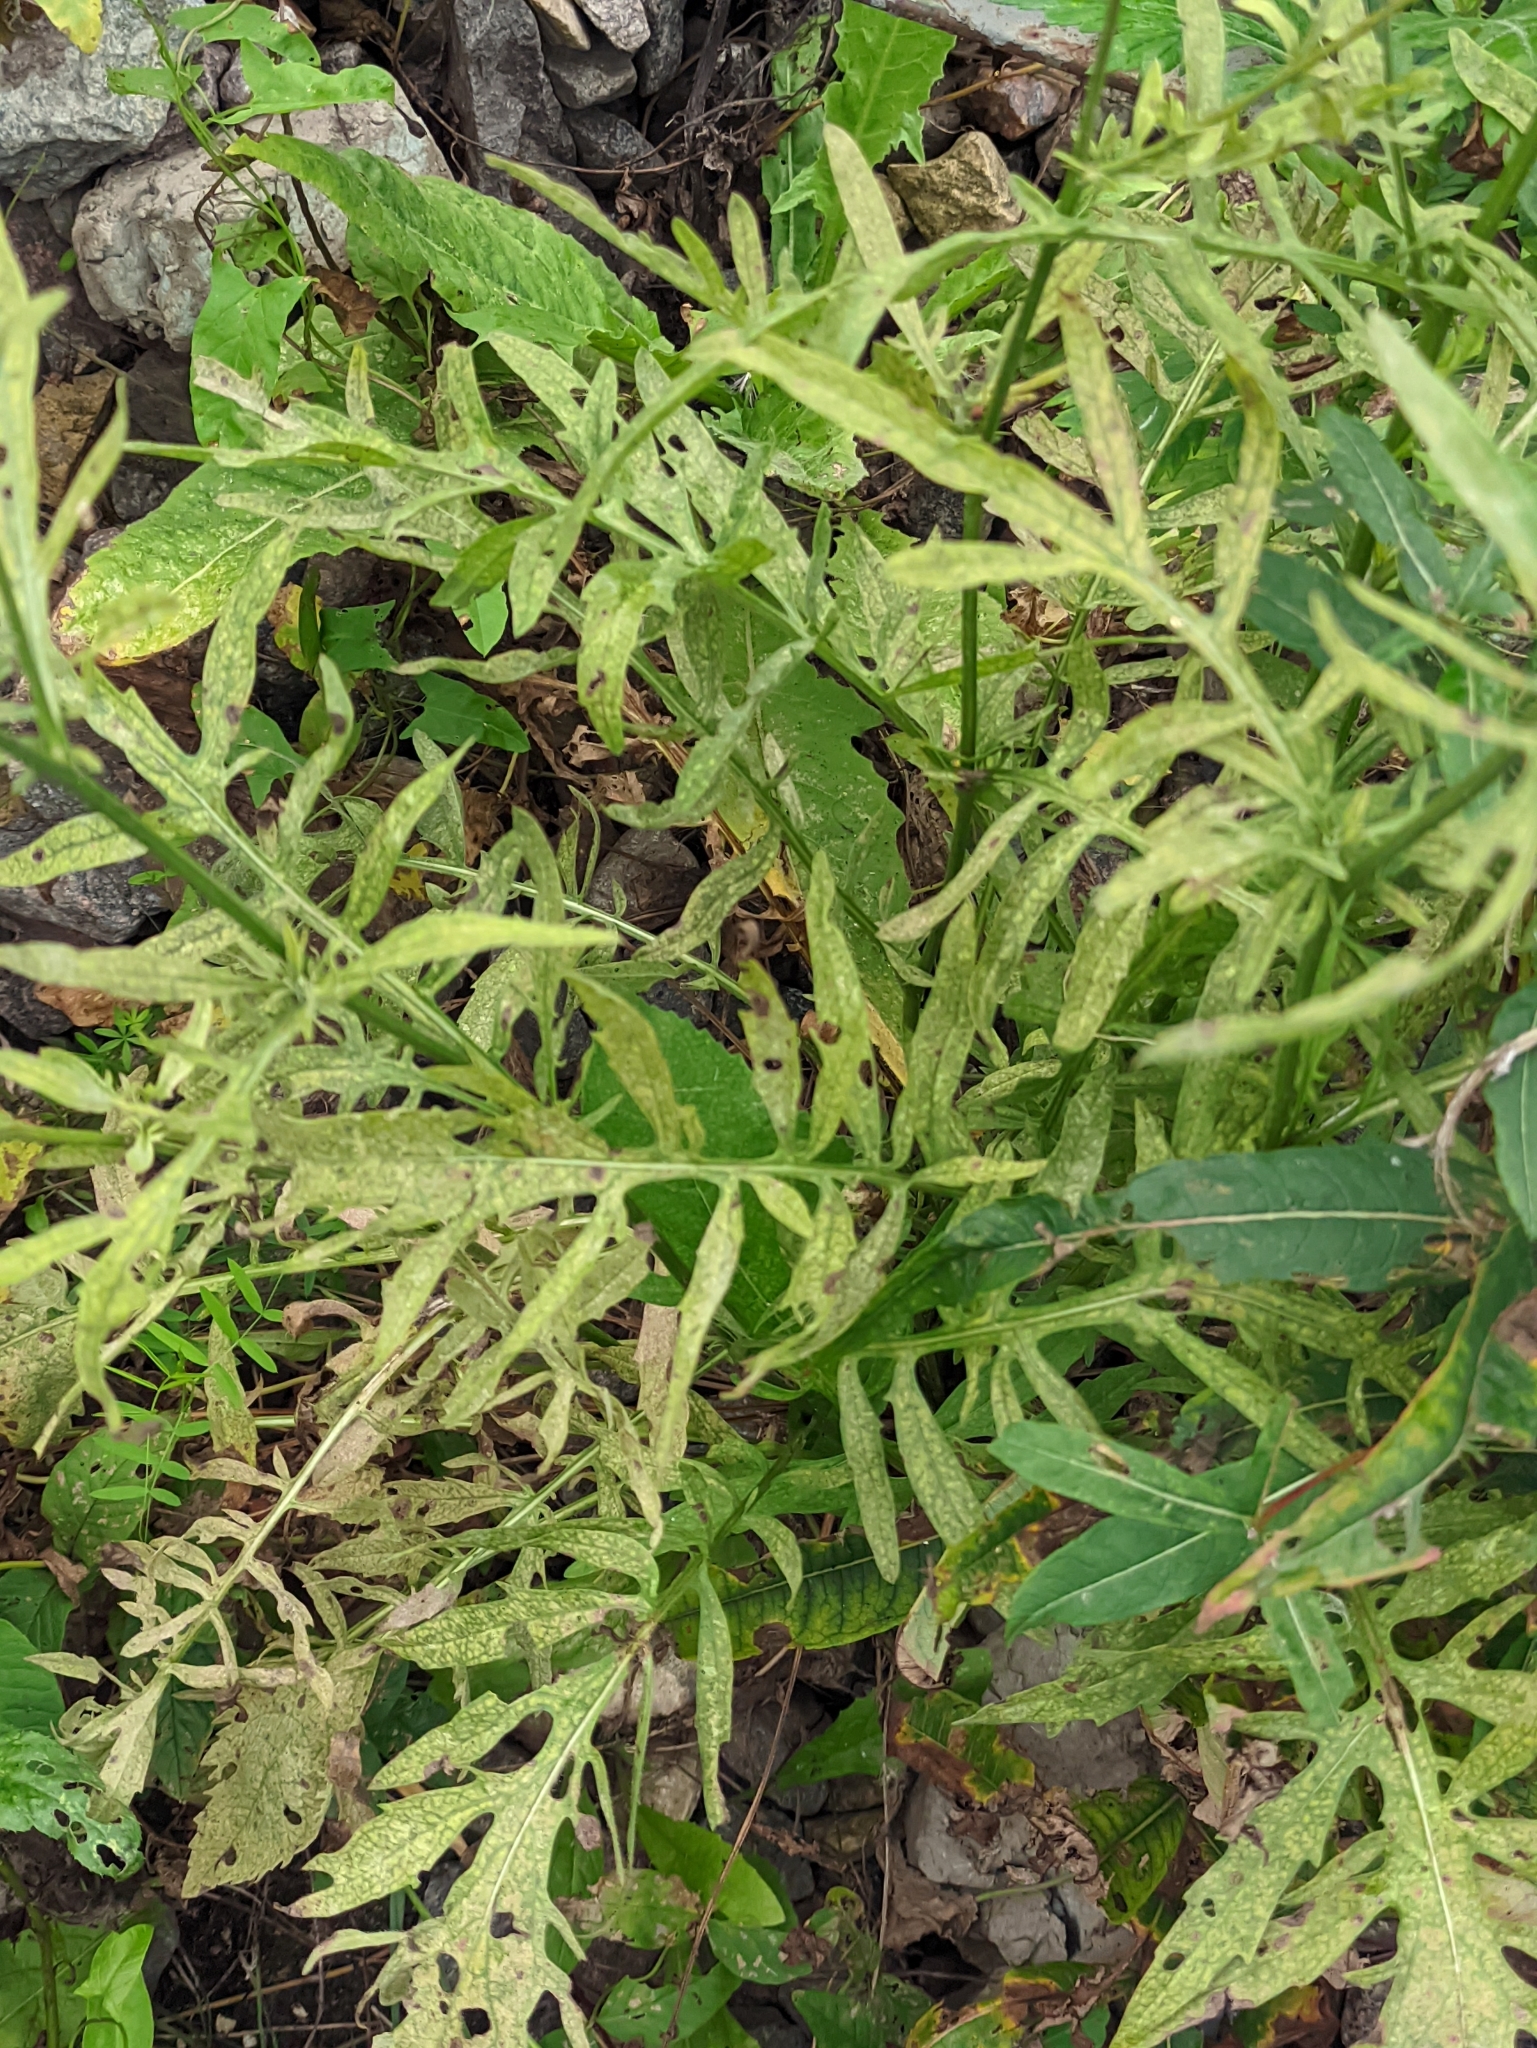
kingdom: Plantae
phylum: Tracheophyta
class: Magnoliopsida
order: Asterales
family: Asteraceae
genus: Centaurea
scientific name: Centaurea scabiosa
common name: Greater knapweed
